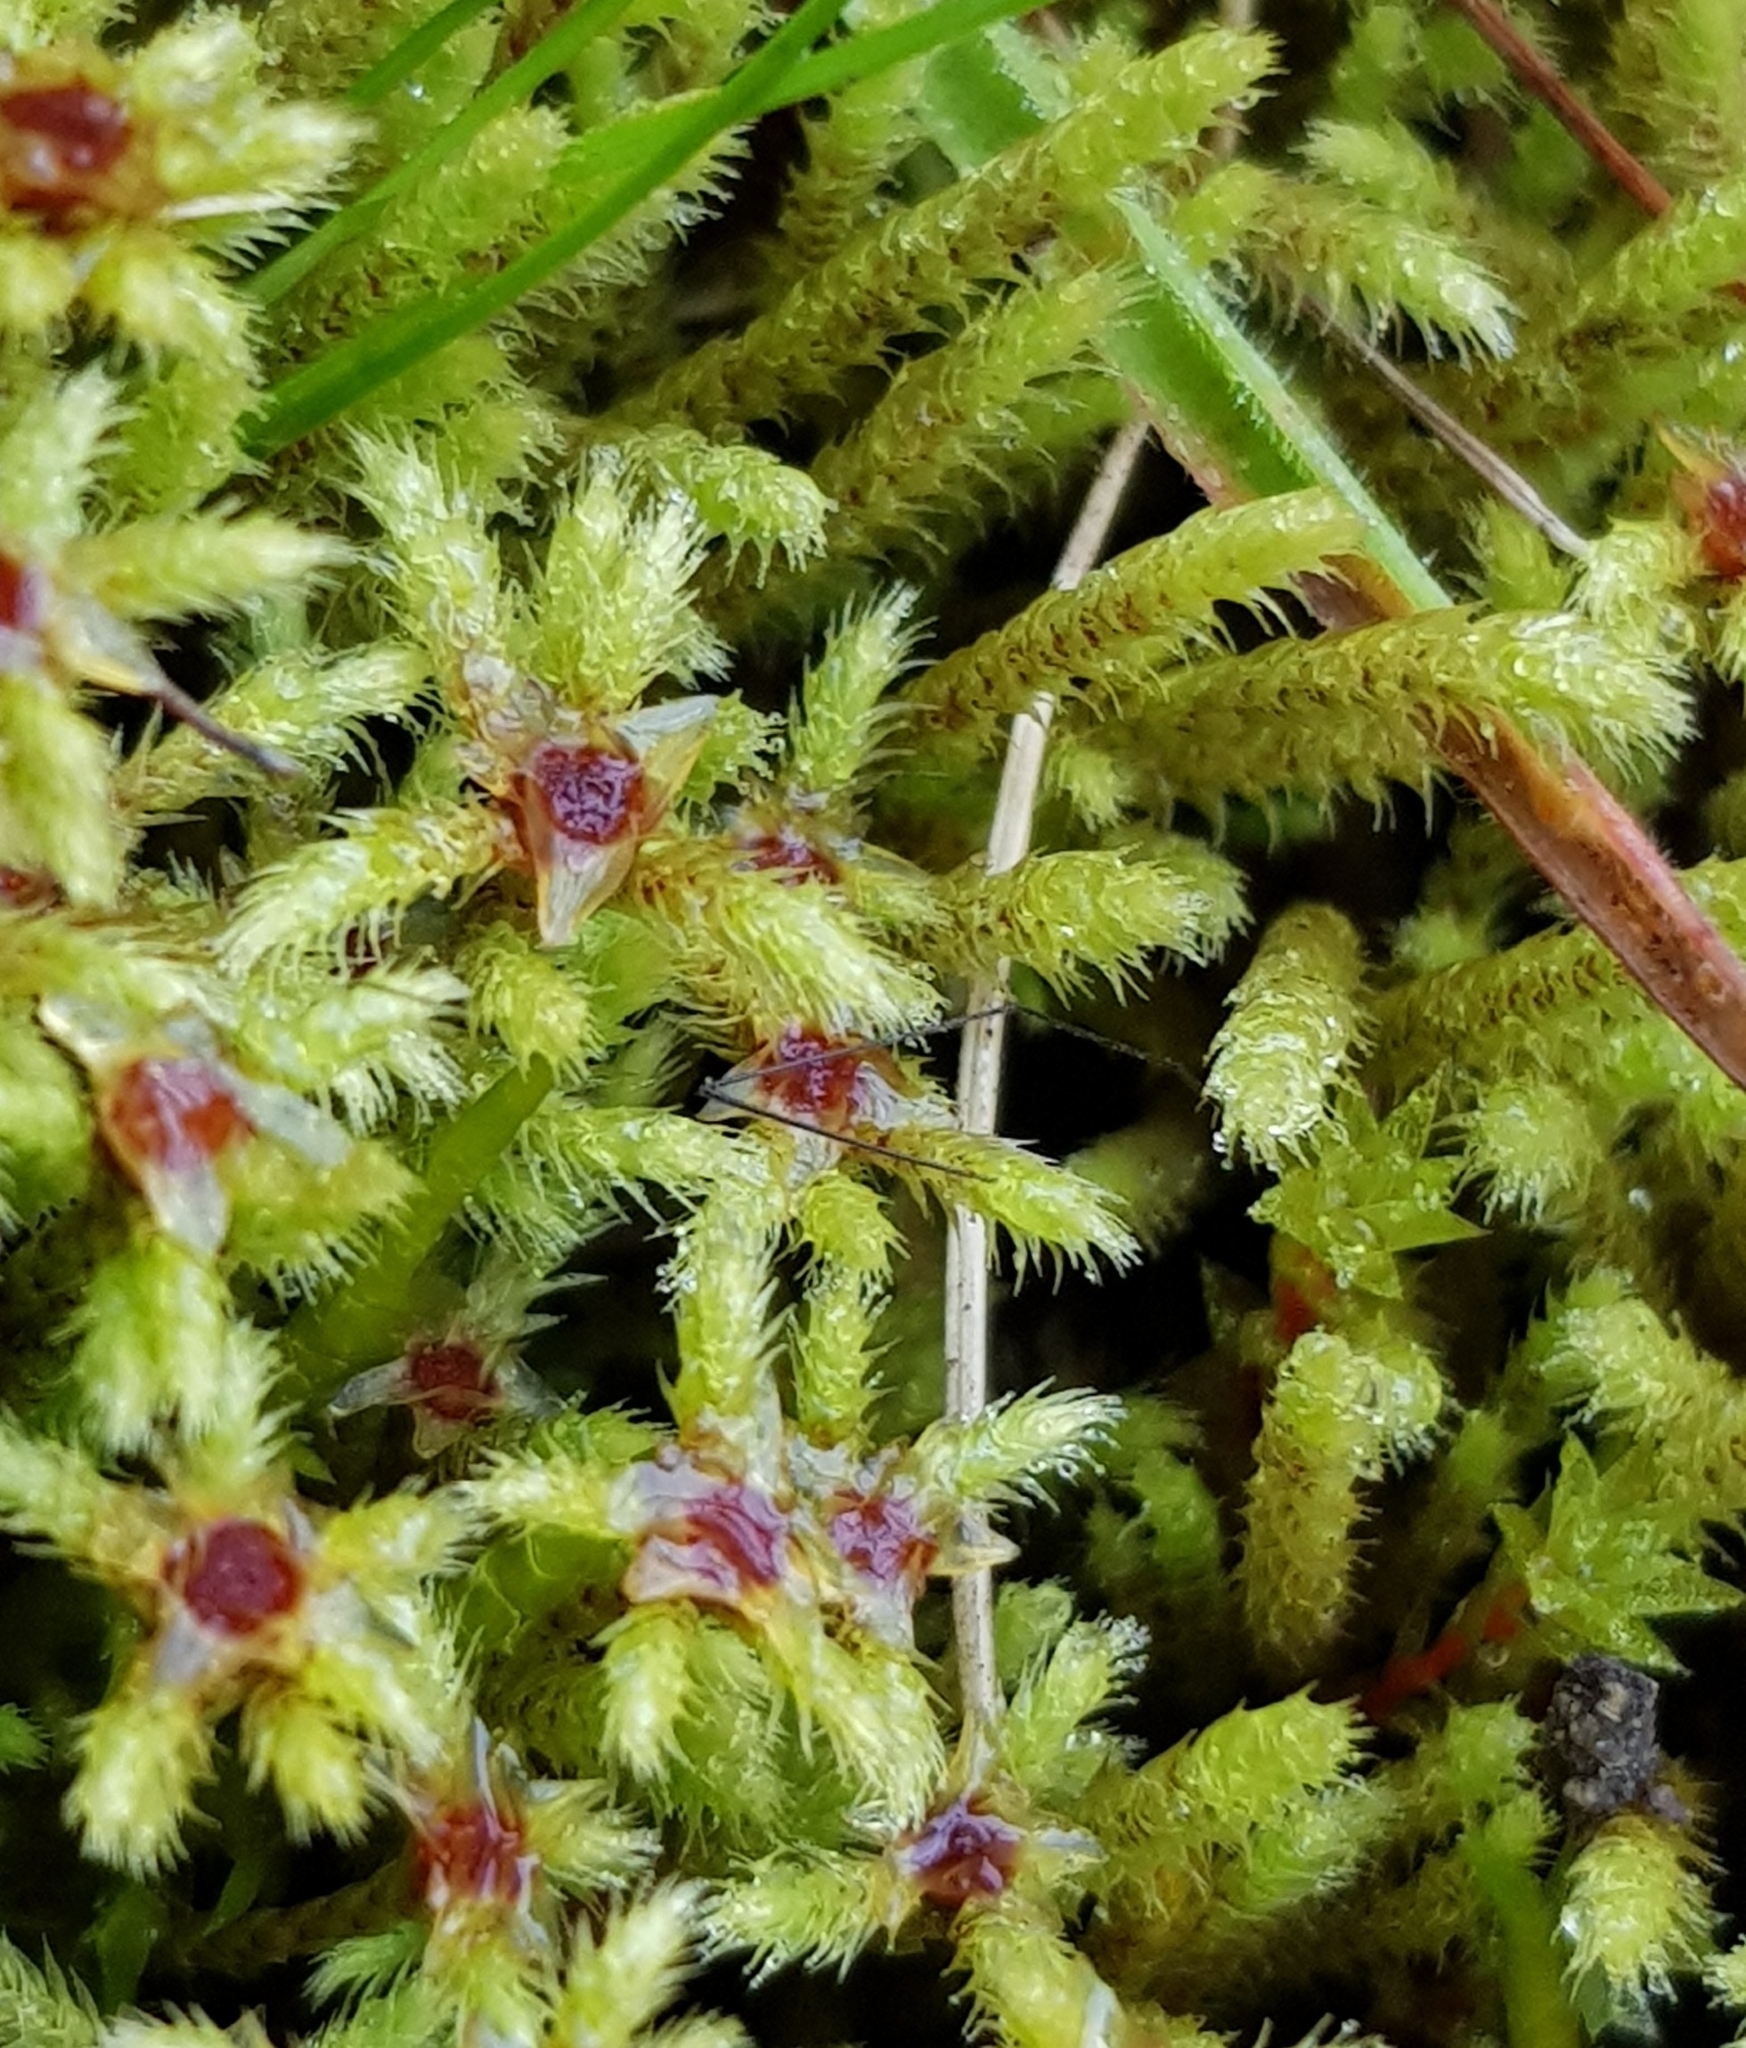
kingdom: Plantae
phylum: Bryophyta
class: Bryopsida
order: Bartramiales
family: Bartramiaceae
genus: Philonotis
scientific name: Philonotis fontana
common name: Fountain apple-moss
